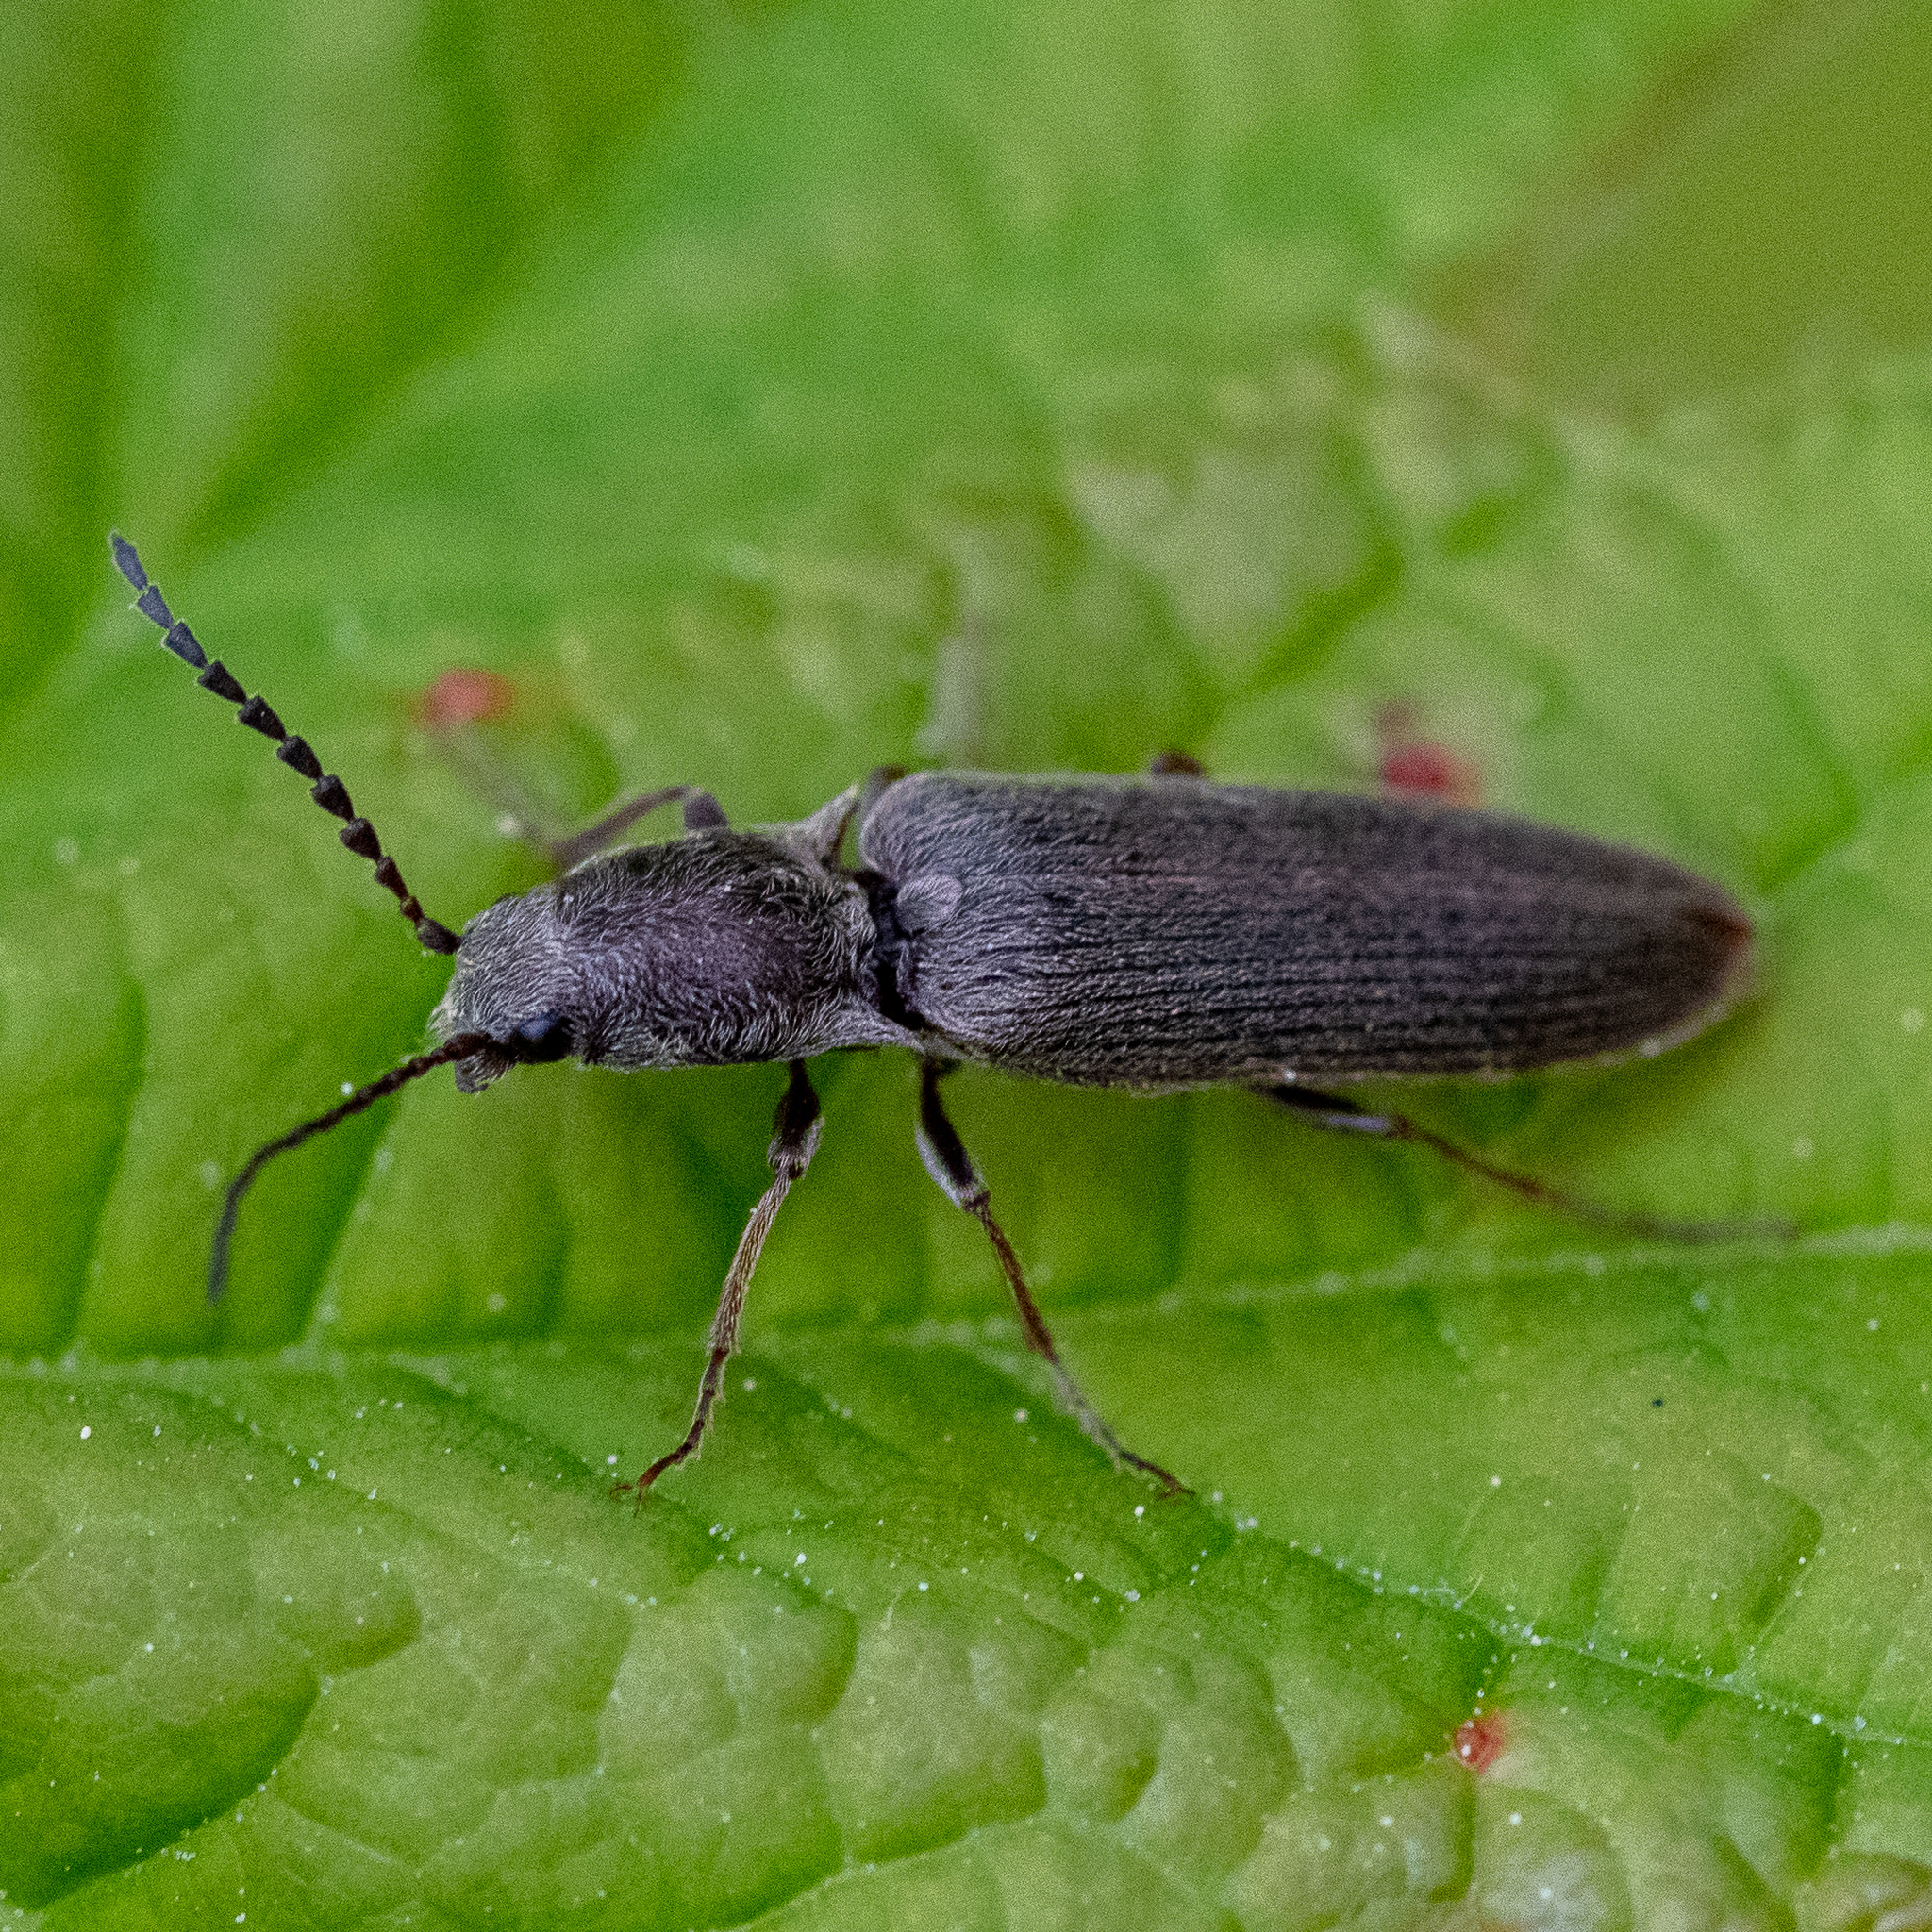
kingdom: Animalia
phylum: Arthropoda
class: Insecta
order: Coleoptera
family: Elateridae
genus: Sylvanelater
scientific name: Sylvanelater cylindriformis
